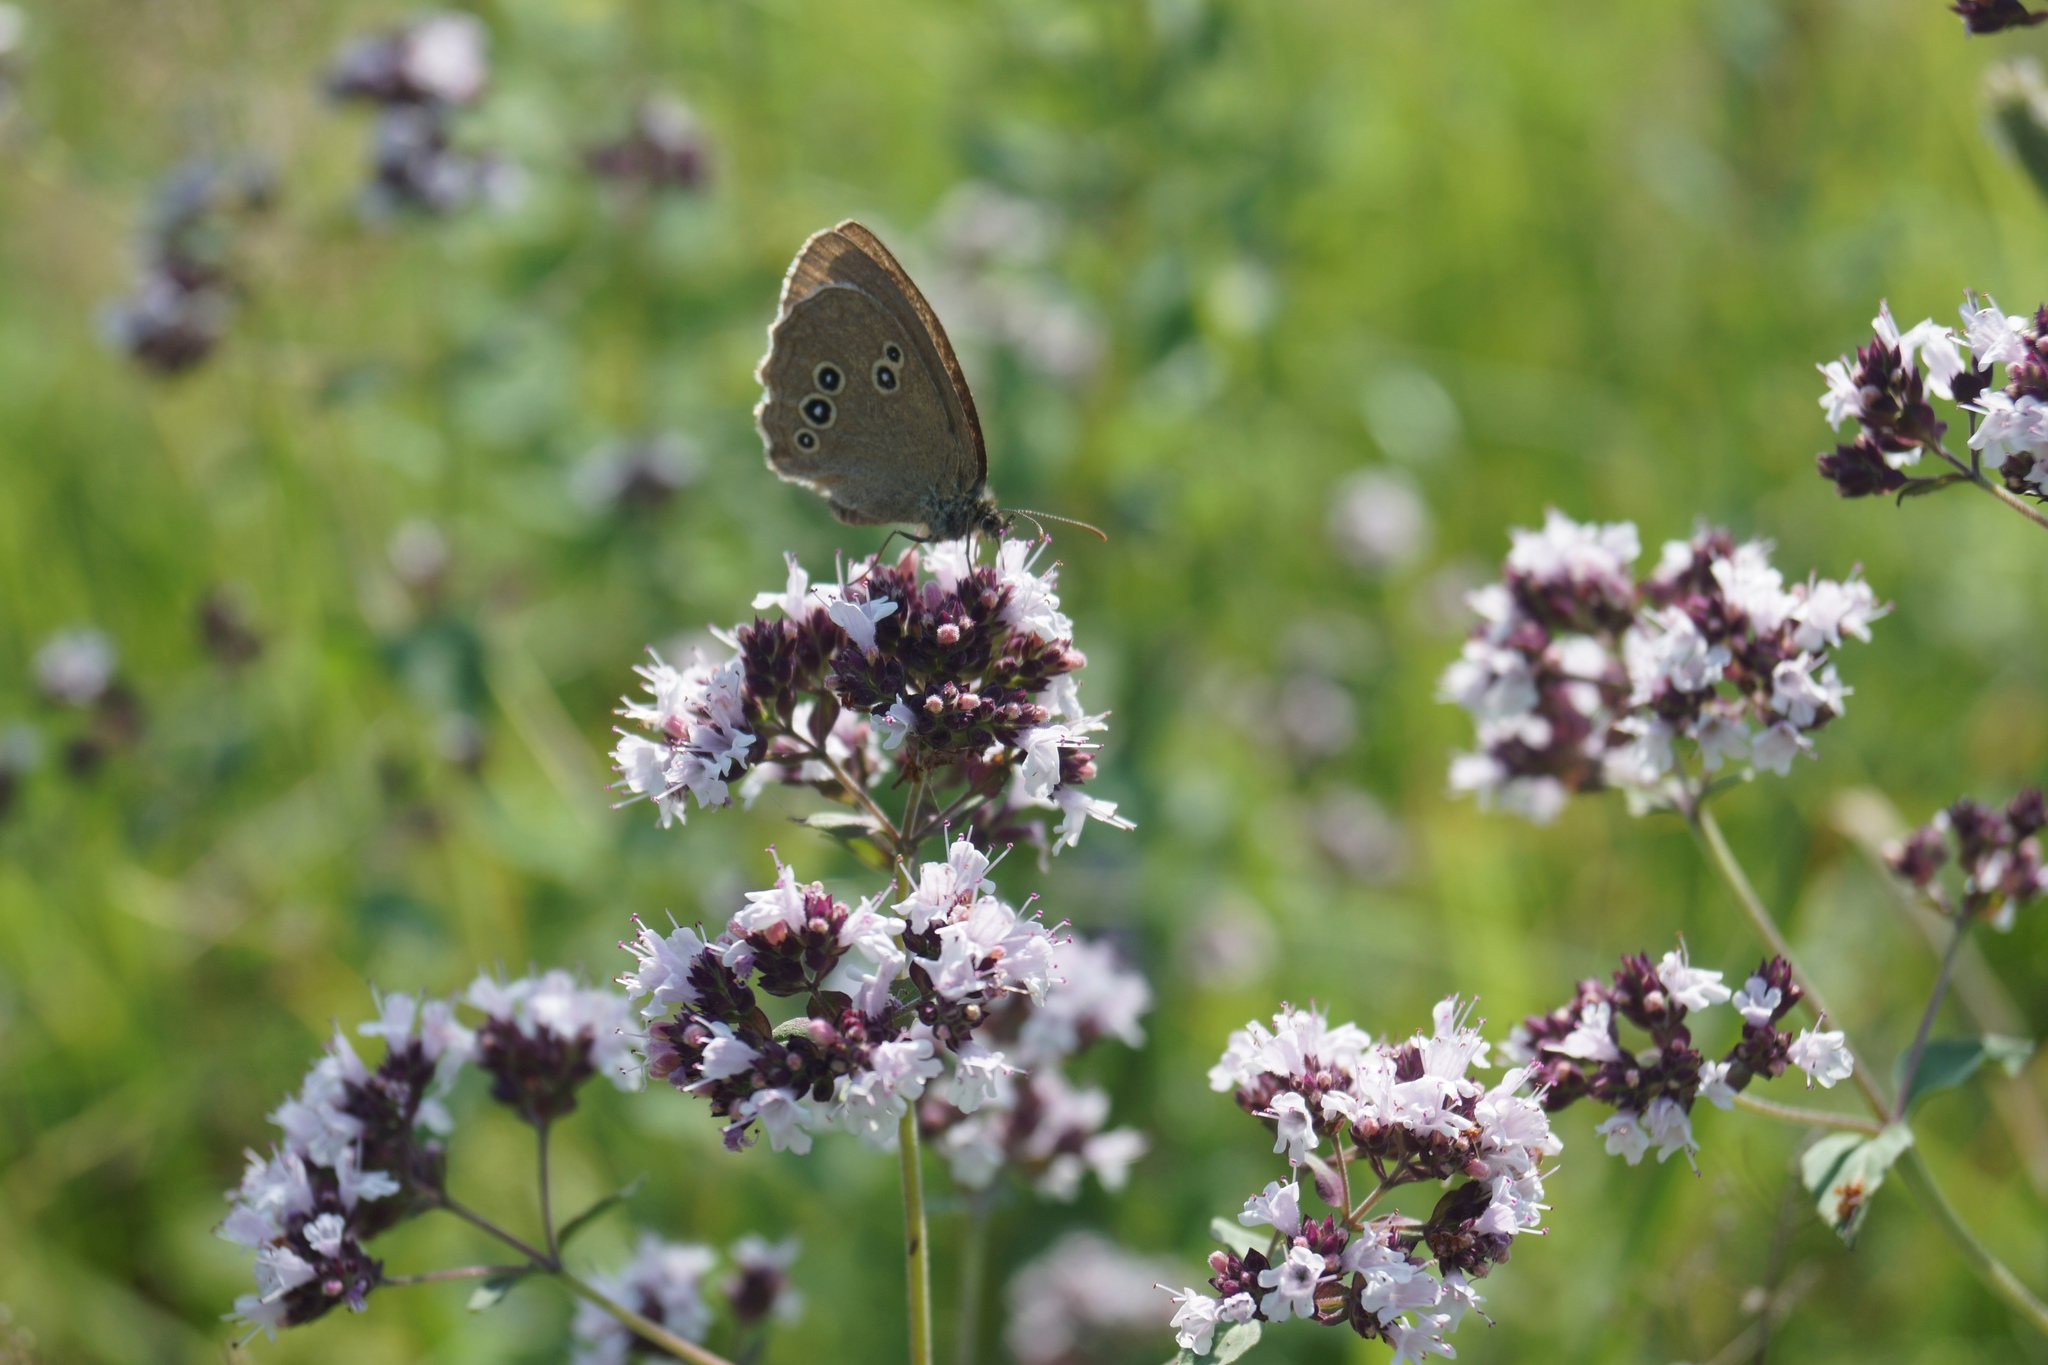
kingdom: Plantae
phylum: Tracheophyta
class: Magnoliopsida
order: Lamiales
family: Lamiaceae
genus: Origanum
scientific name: Origanum vulgare
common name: Wild marjoram
